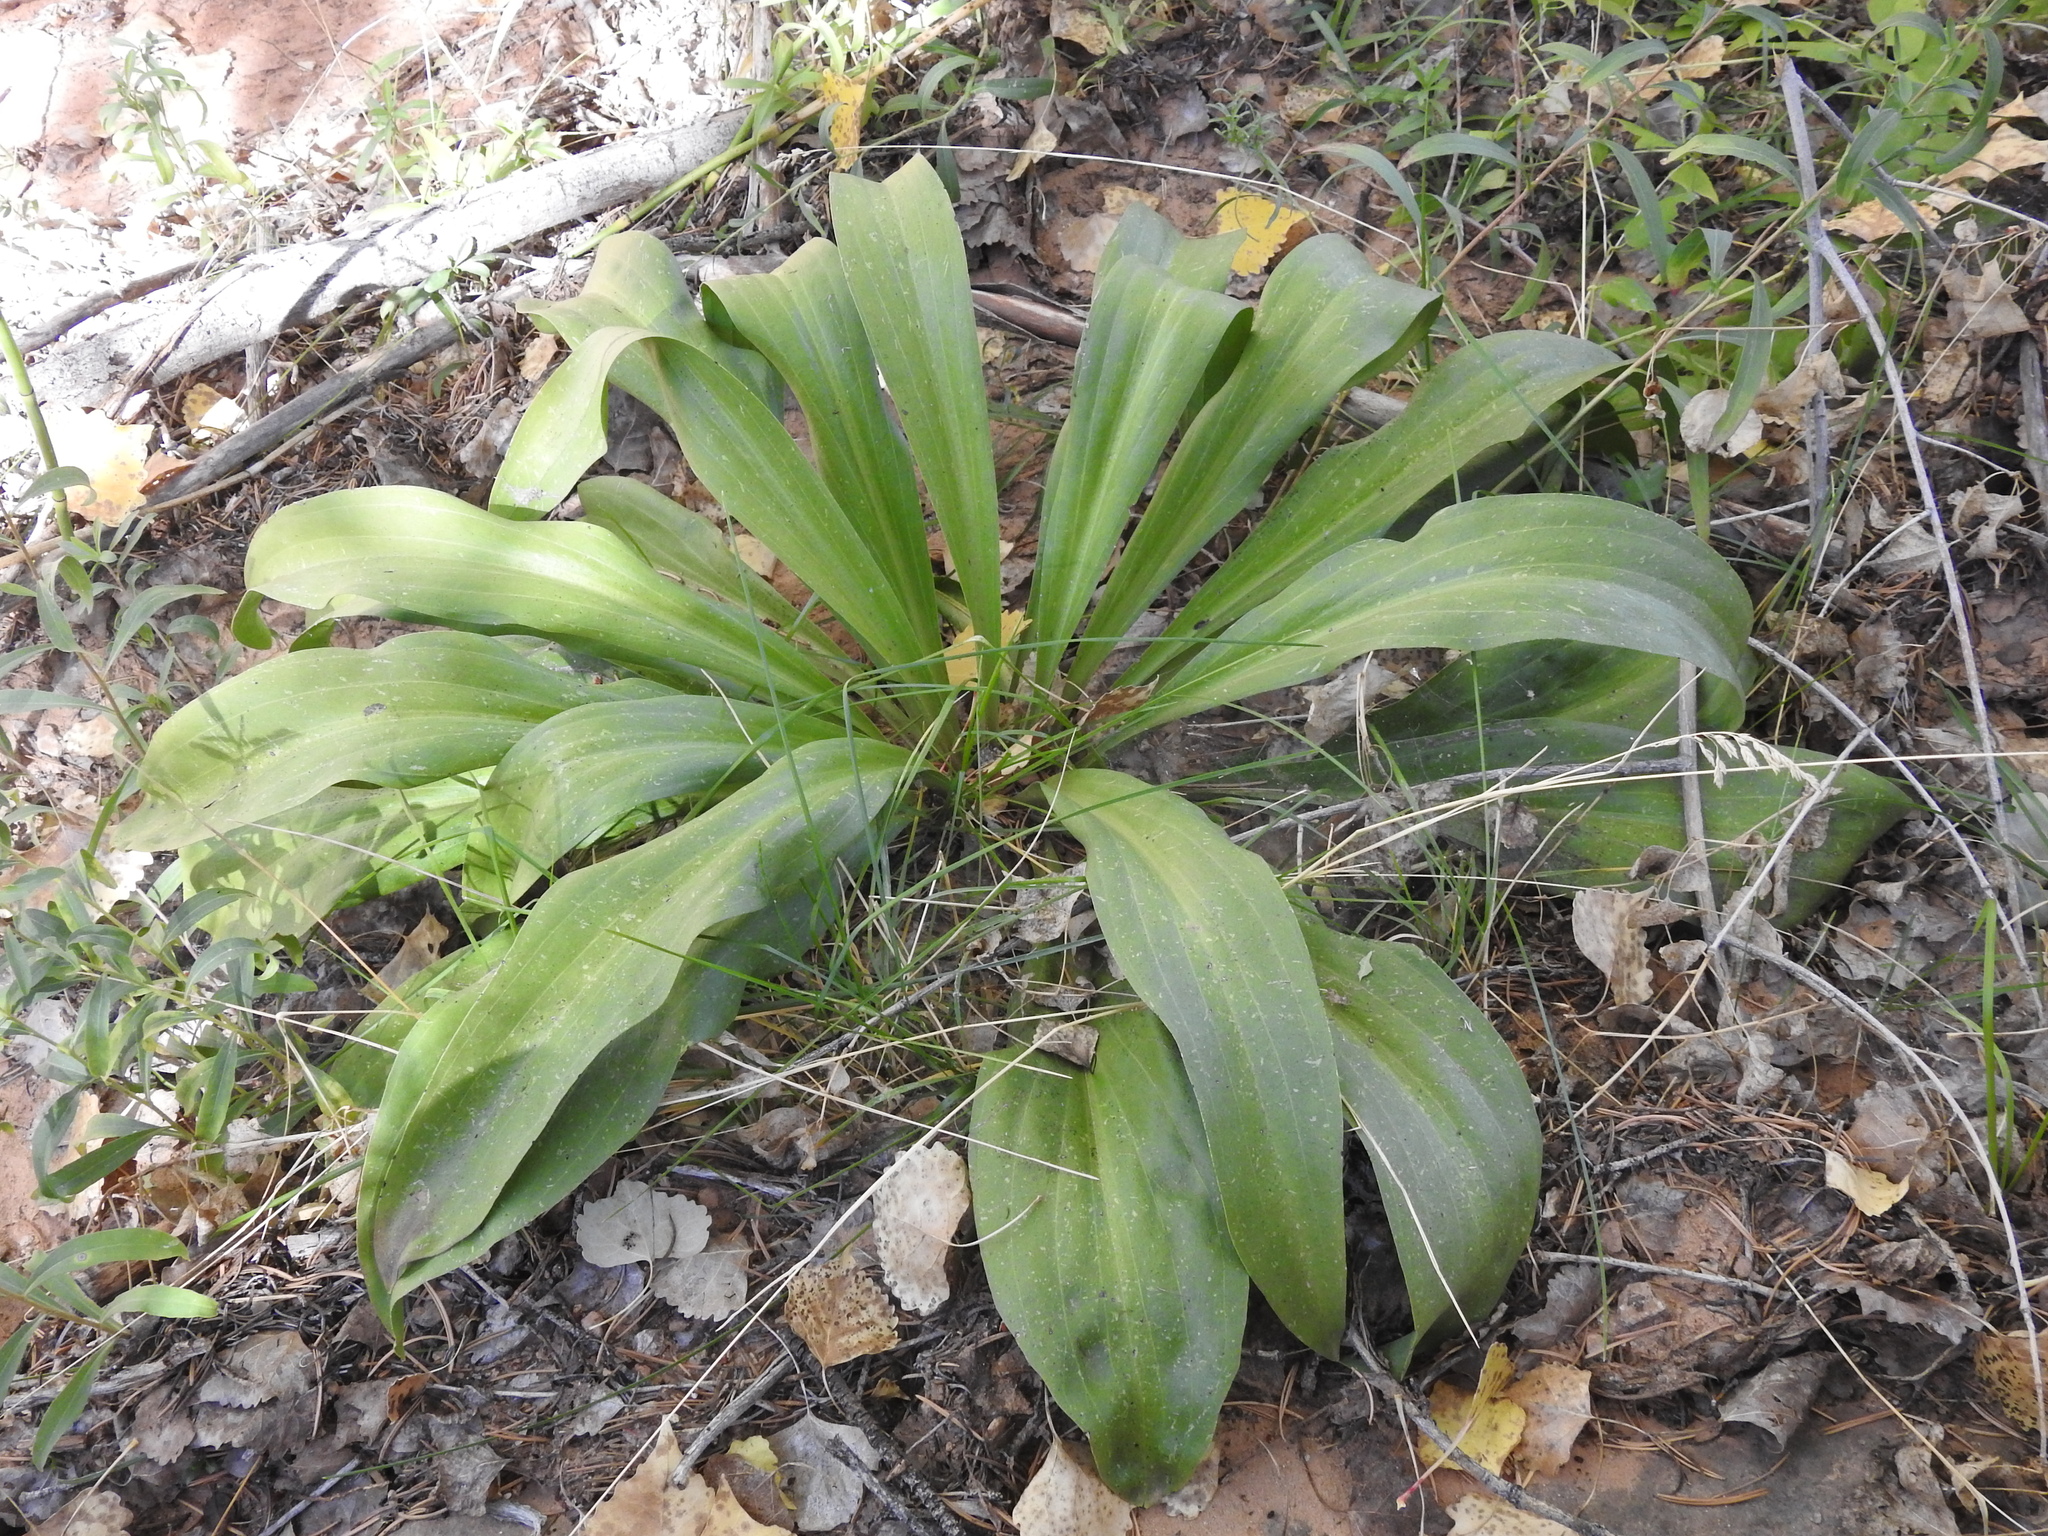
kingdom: Plantae
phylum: Tracheophyta
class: Magnoliopsida
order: Gentianales
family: Gentianaceae
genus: Frasera
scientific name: Frasera speciosa
